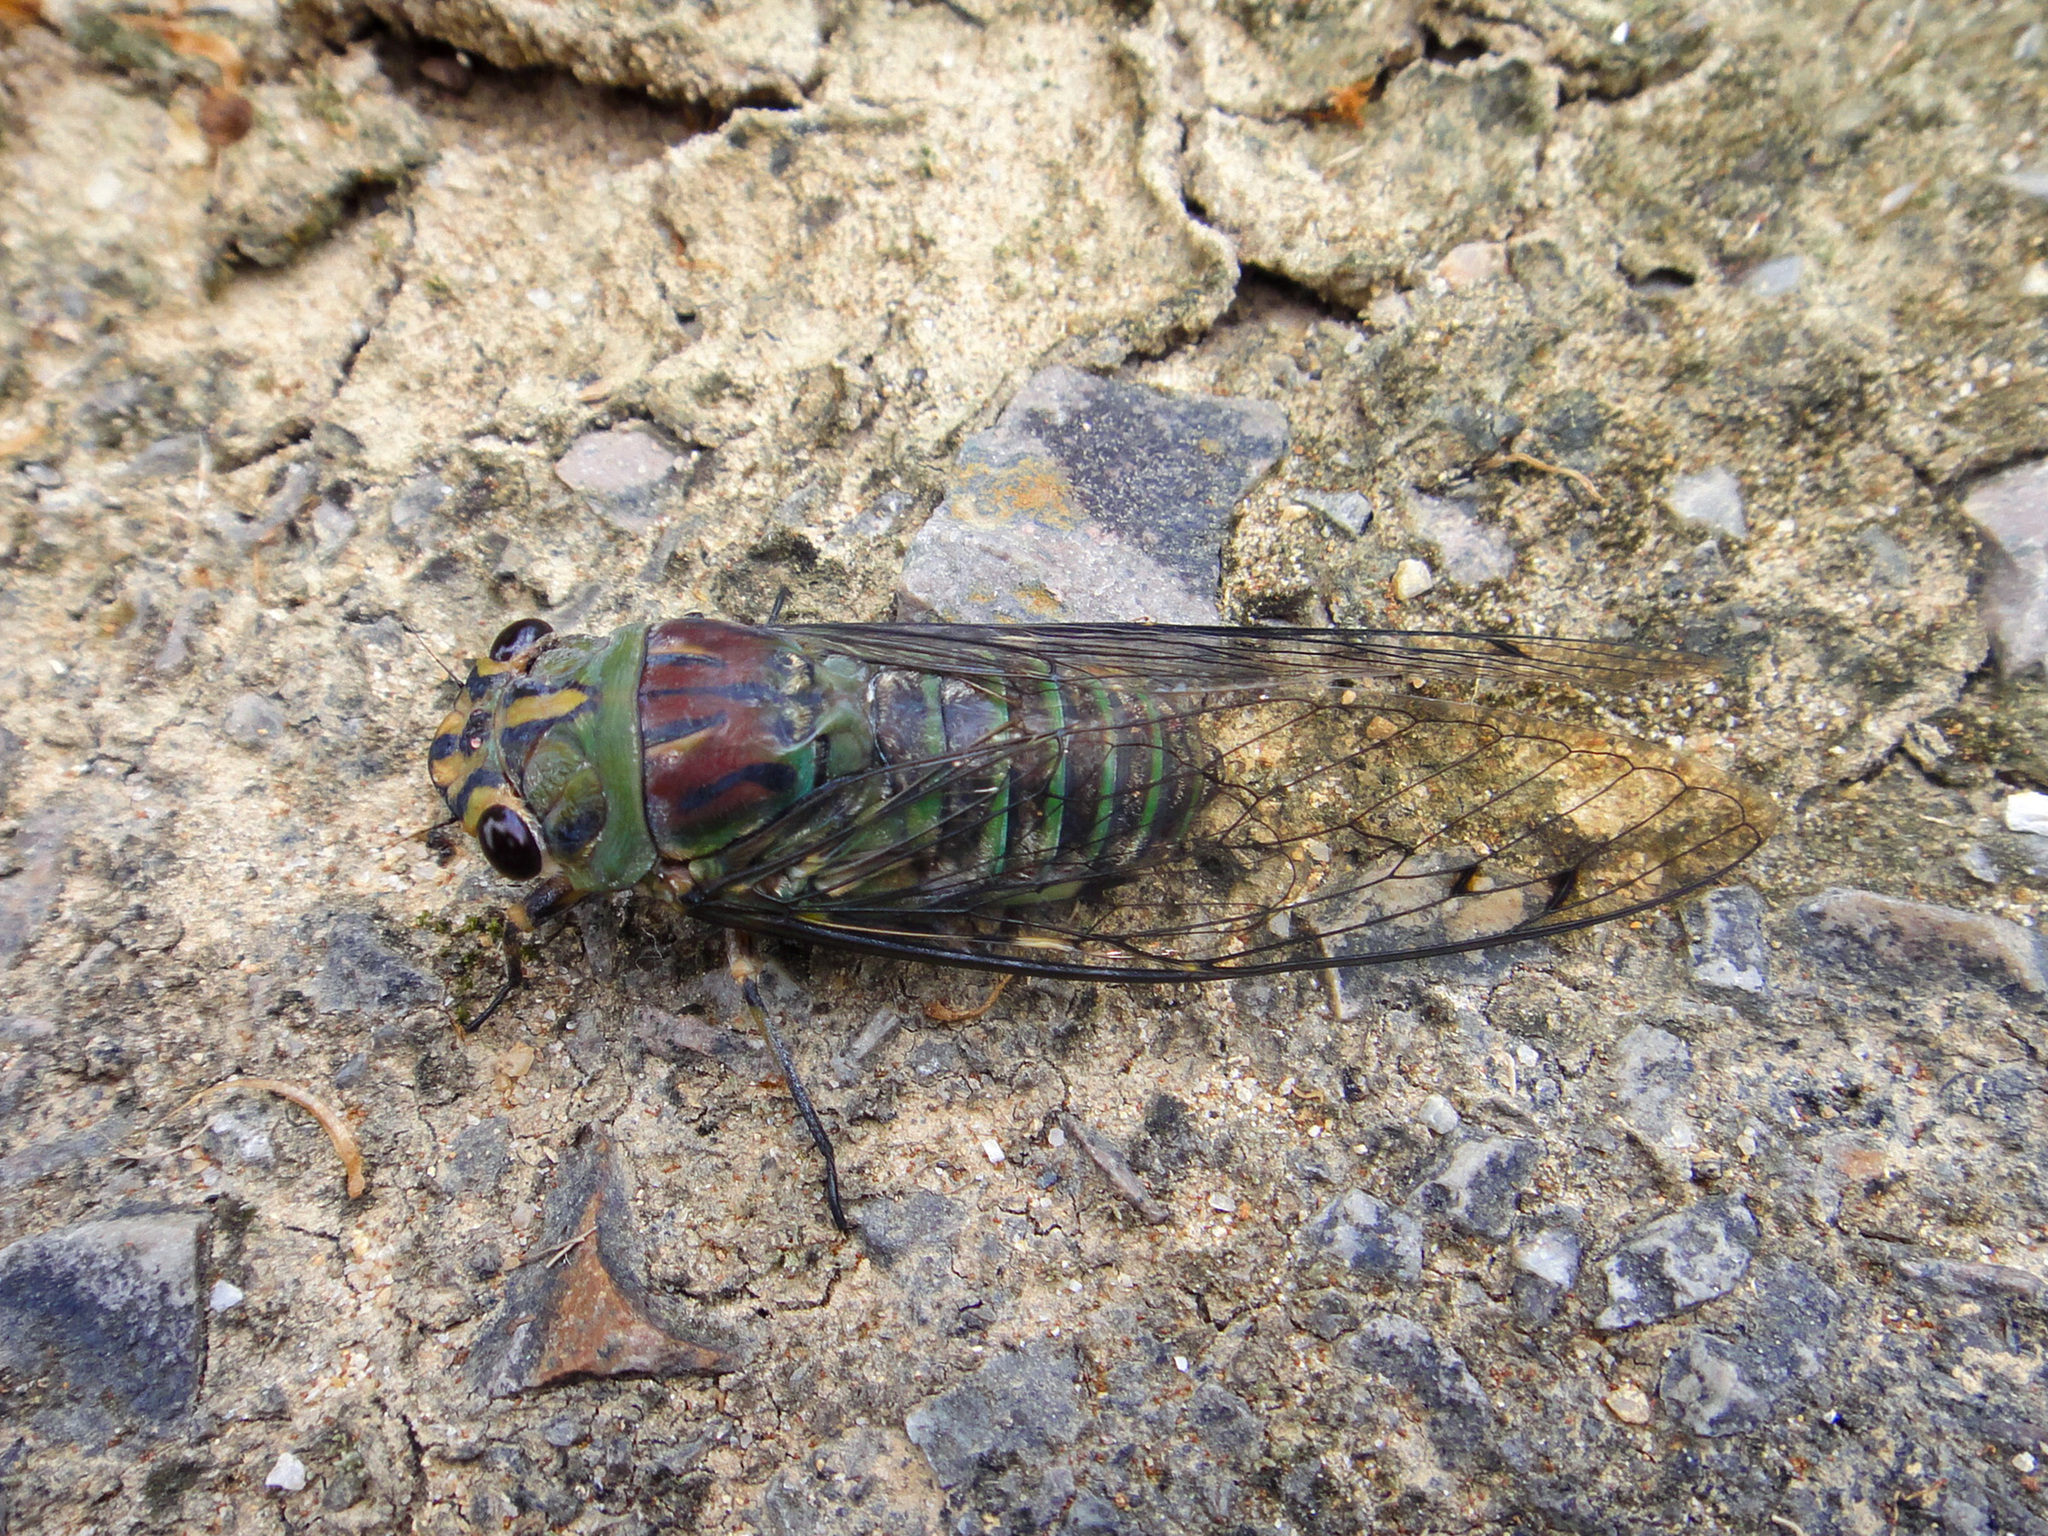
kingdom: Animalia
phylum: Arthropoda
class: Insecta
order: Hemiptera
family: Cicadidae
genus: Orientopsaltria
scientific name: Orientopsaltria ruslani
